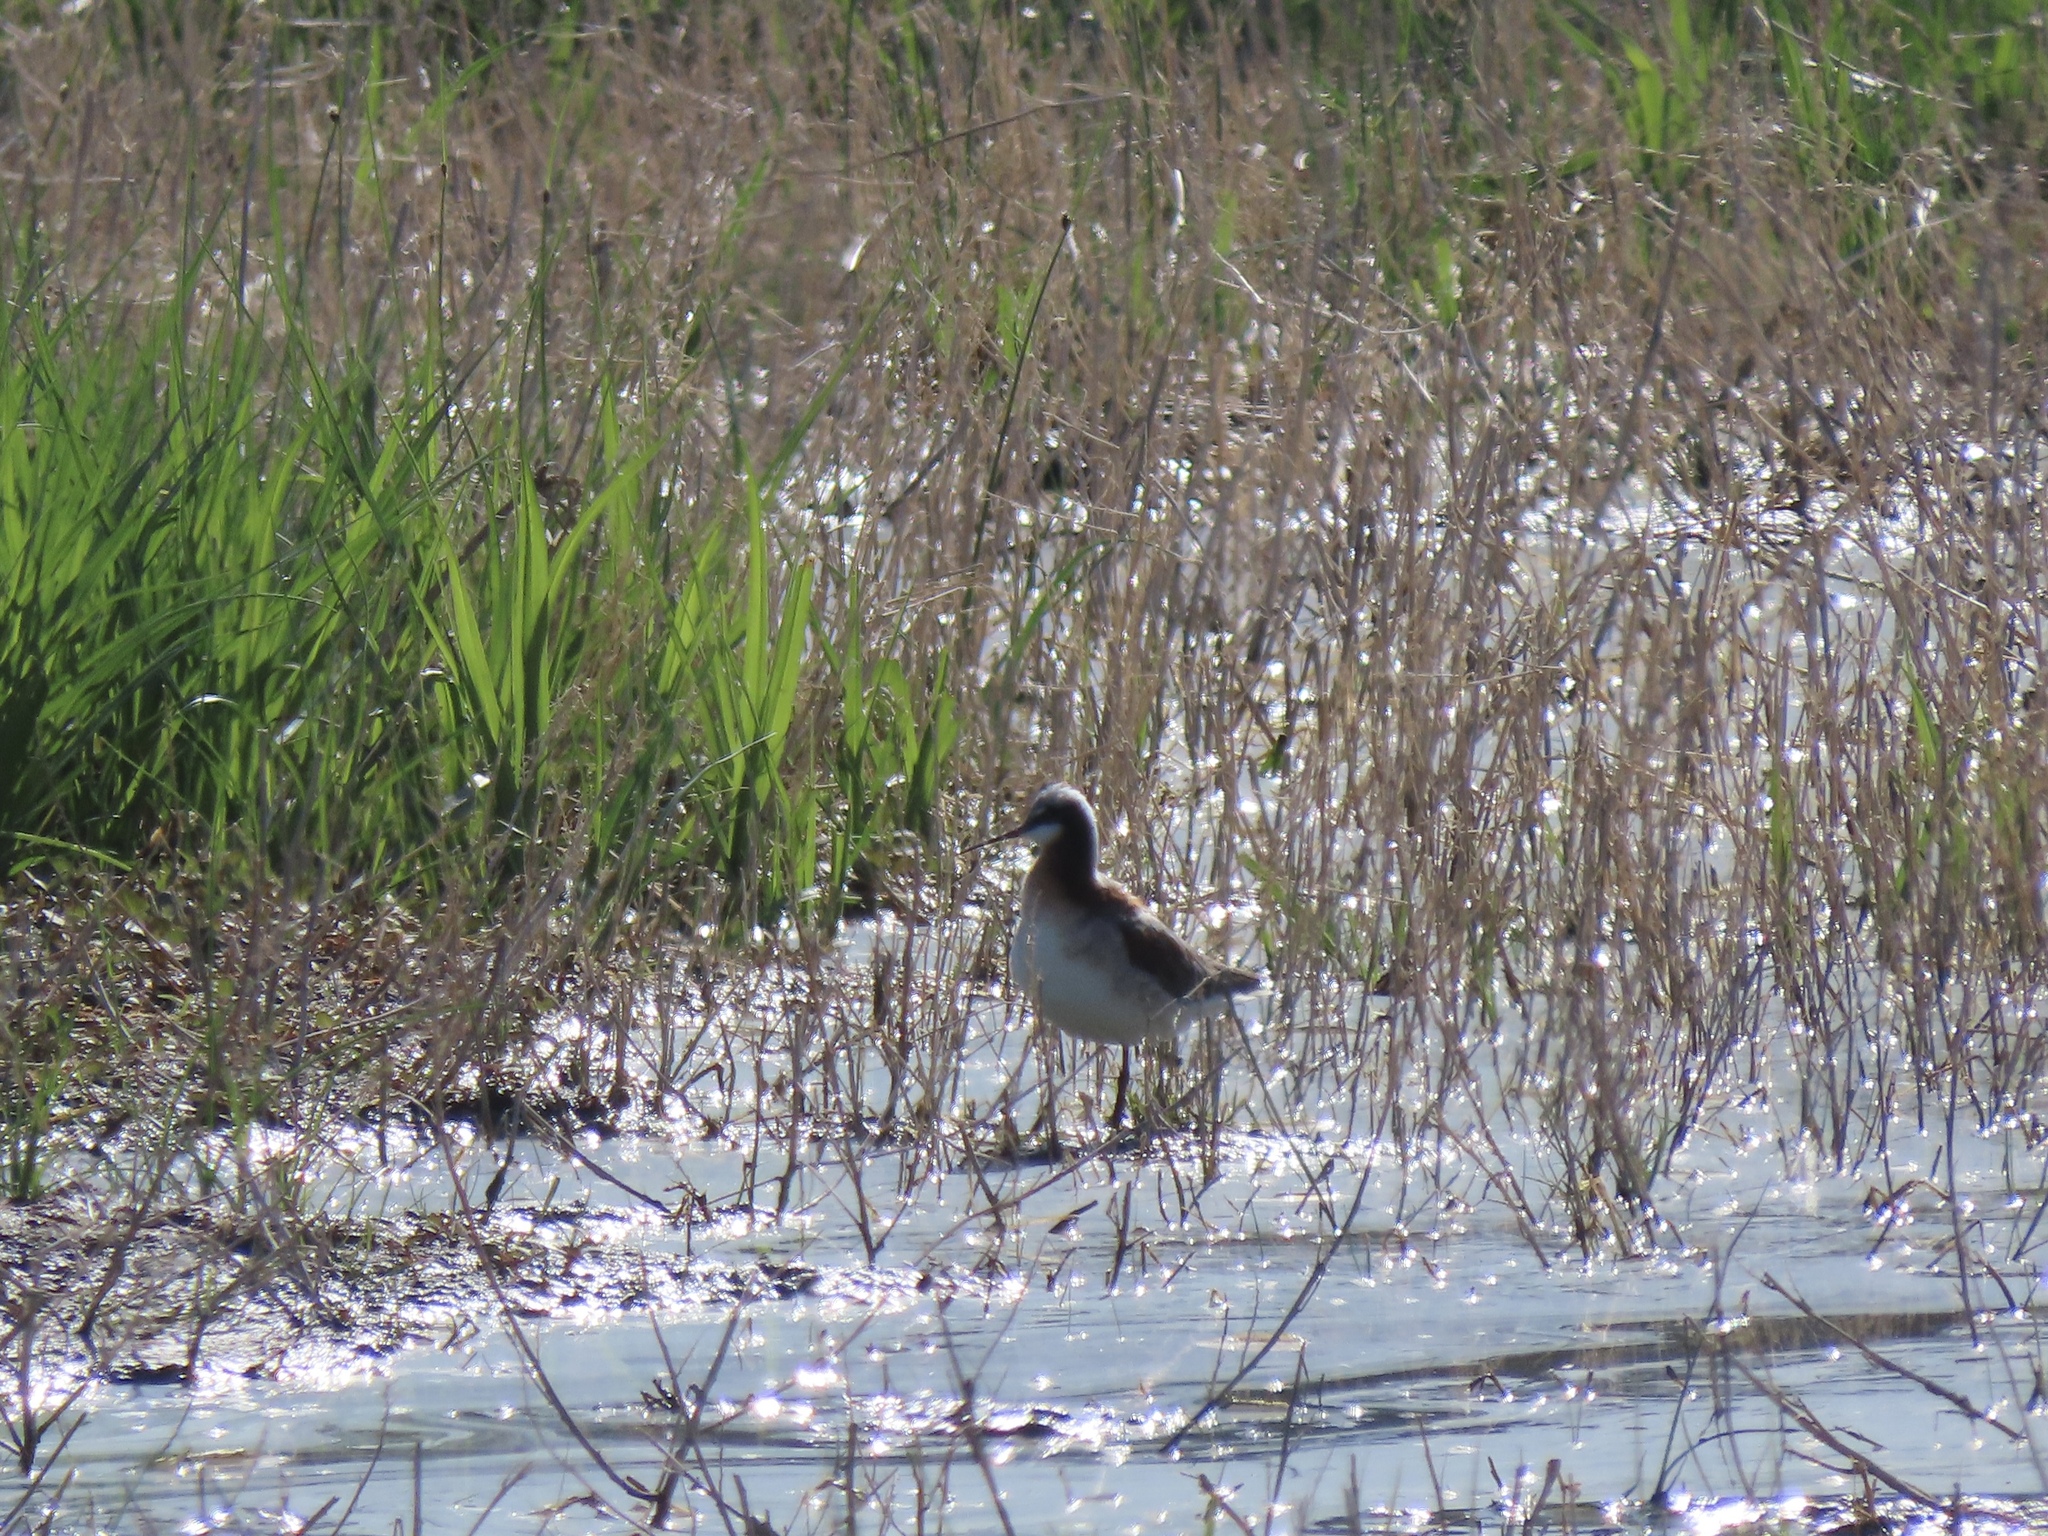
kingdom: Animalia
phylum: Chordata
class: Aves
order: Charadriiformes
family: Scolopacidae
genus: Phalaropus
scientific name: Phalaropus tricolor
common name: Wilson's phalarope
